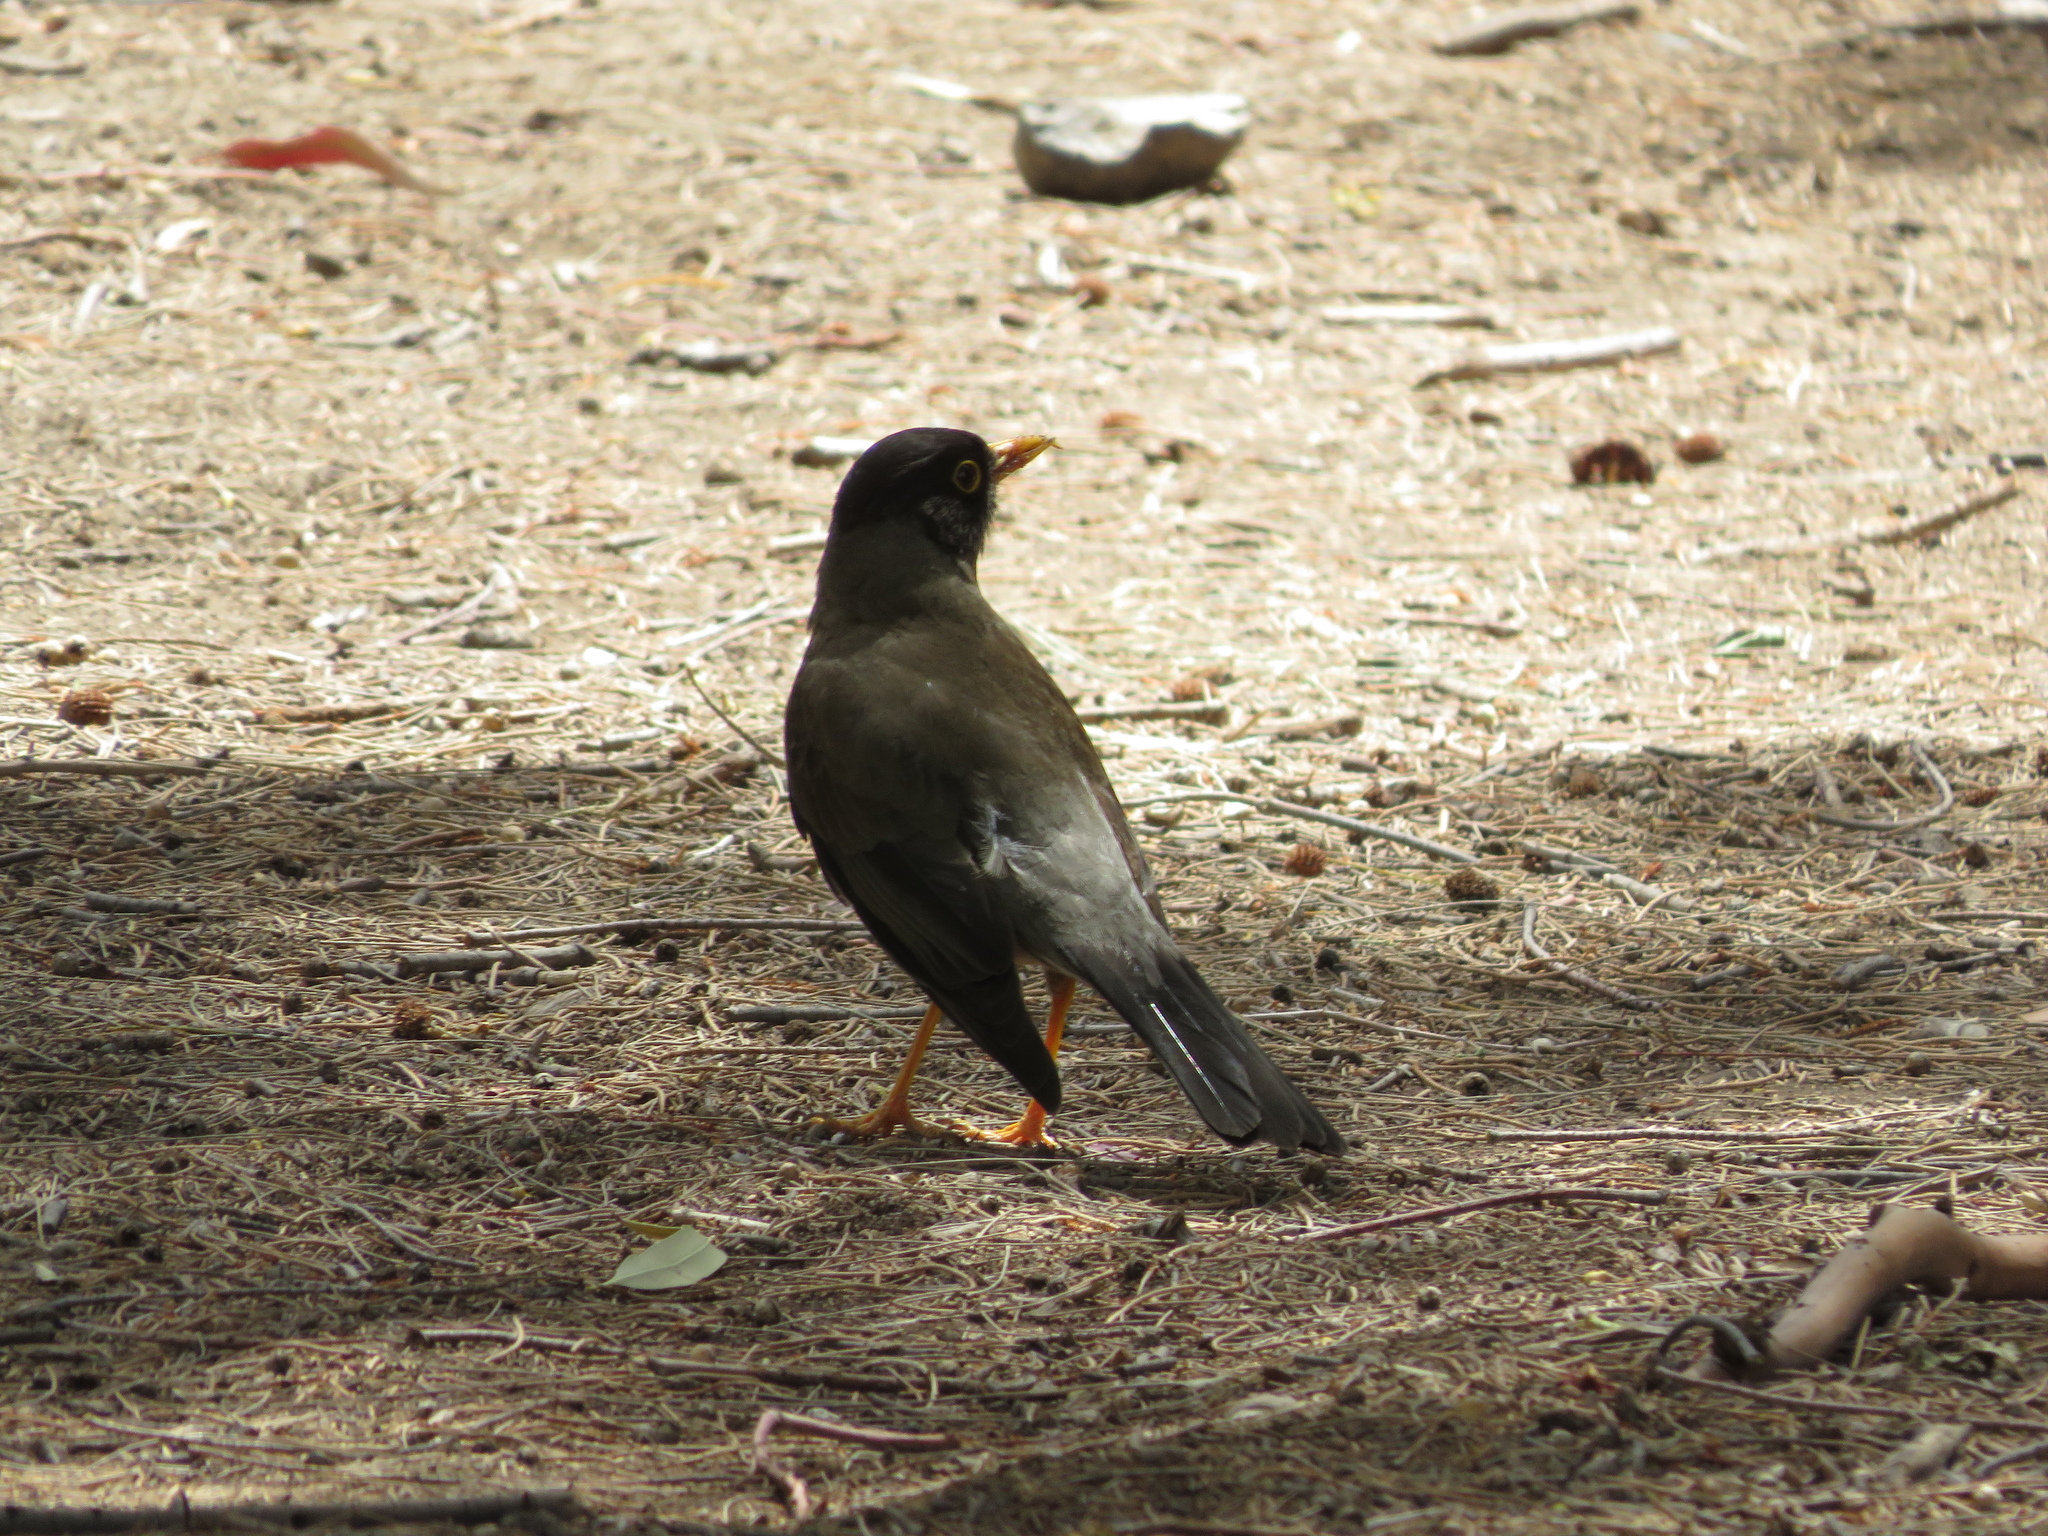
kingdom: Animalia
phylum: Chordata
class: Aves
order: Passeriformes
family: Turdidae
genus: Turdus
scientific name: Turdus falcklandii
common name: Austral thrush
